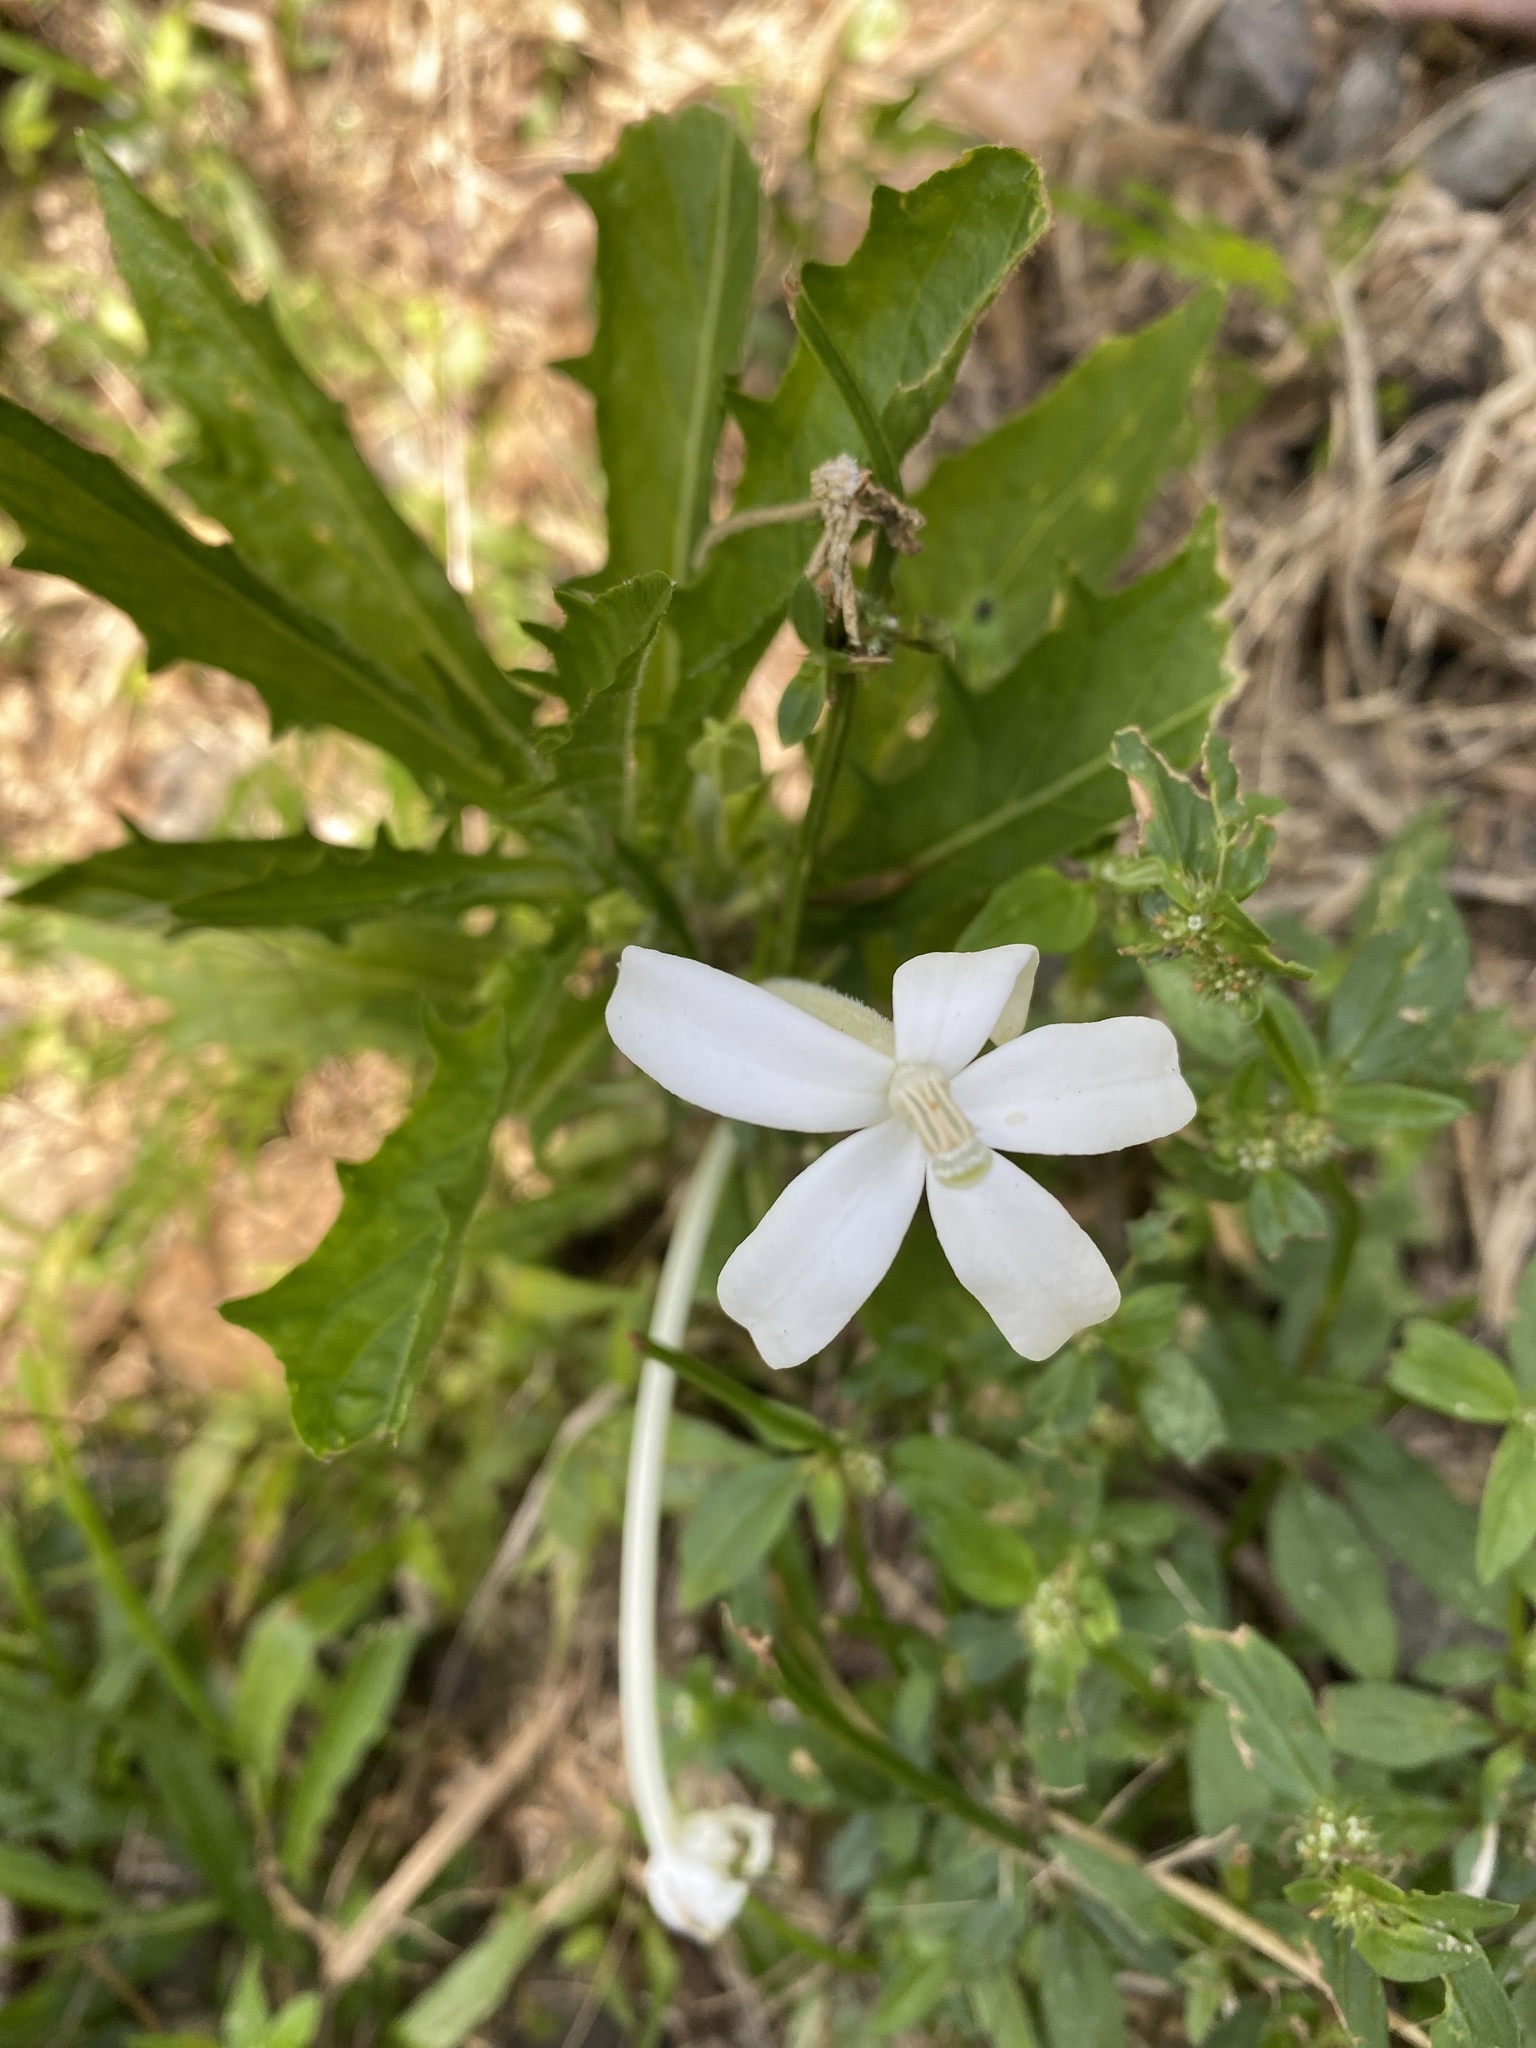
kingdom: Plantae
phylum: Tracheophyta
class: Magnoliopsida
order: Asterales
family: Campanulaceae
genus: Hippobroma
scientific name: Hippobroma longiflora
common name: Madamfate
